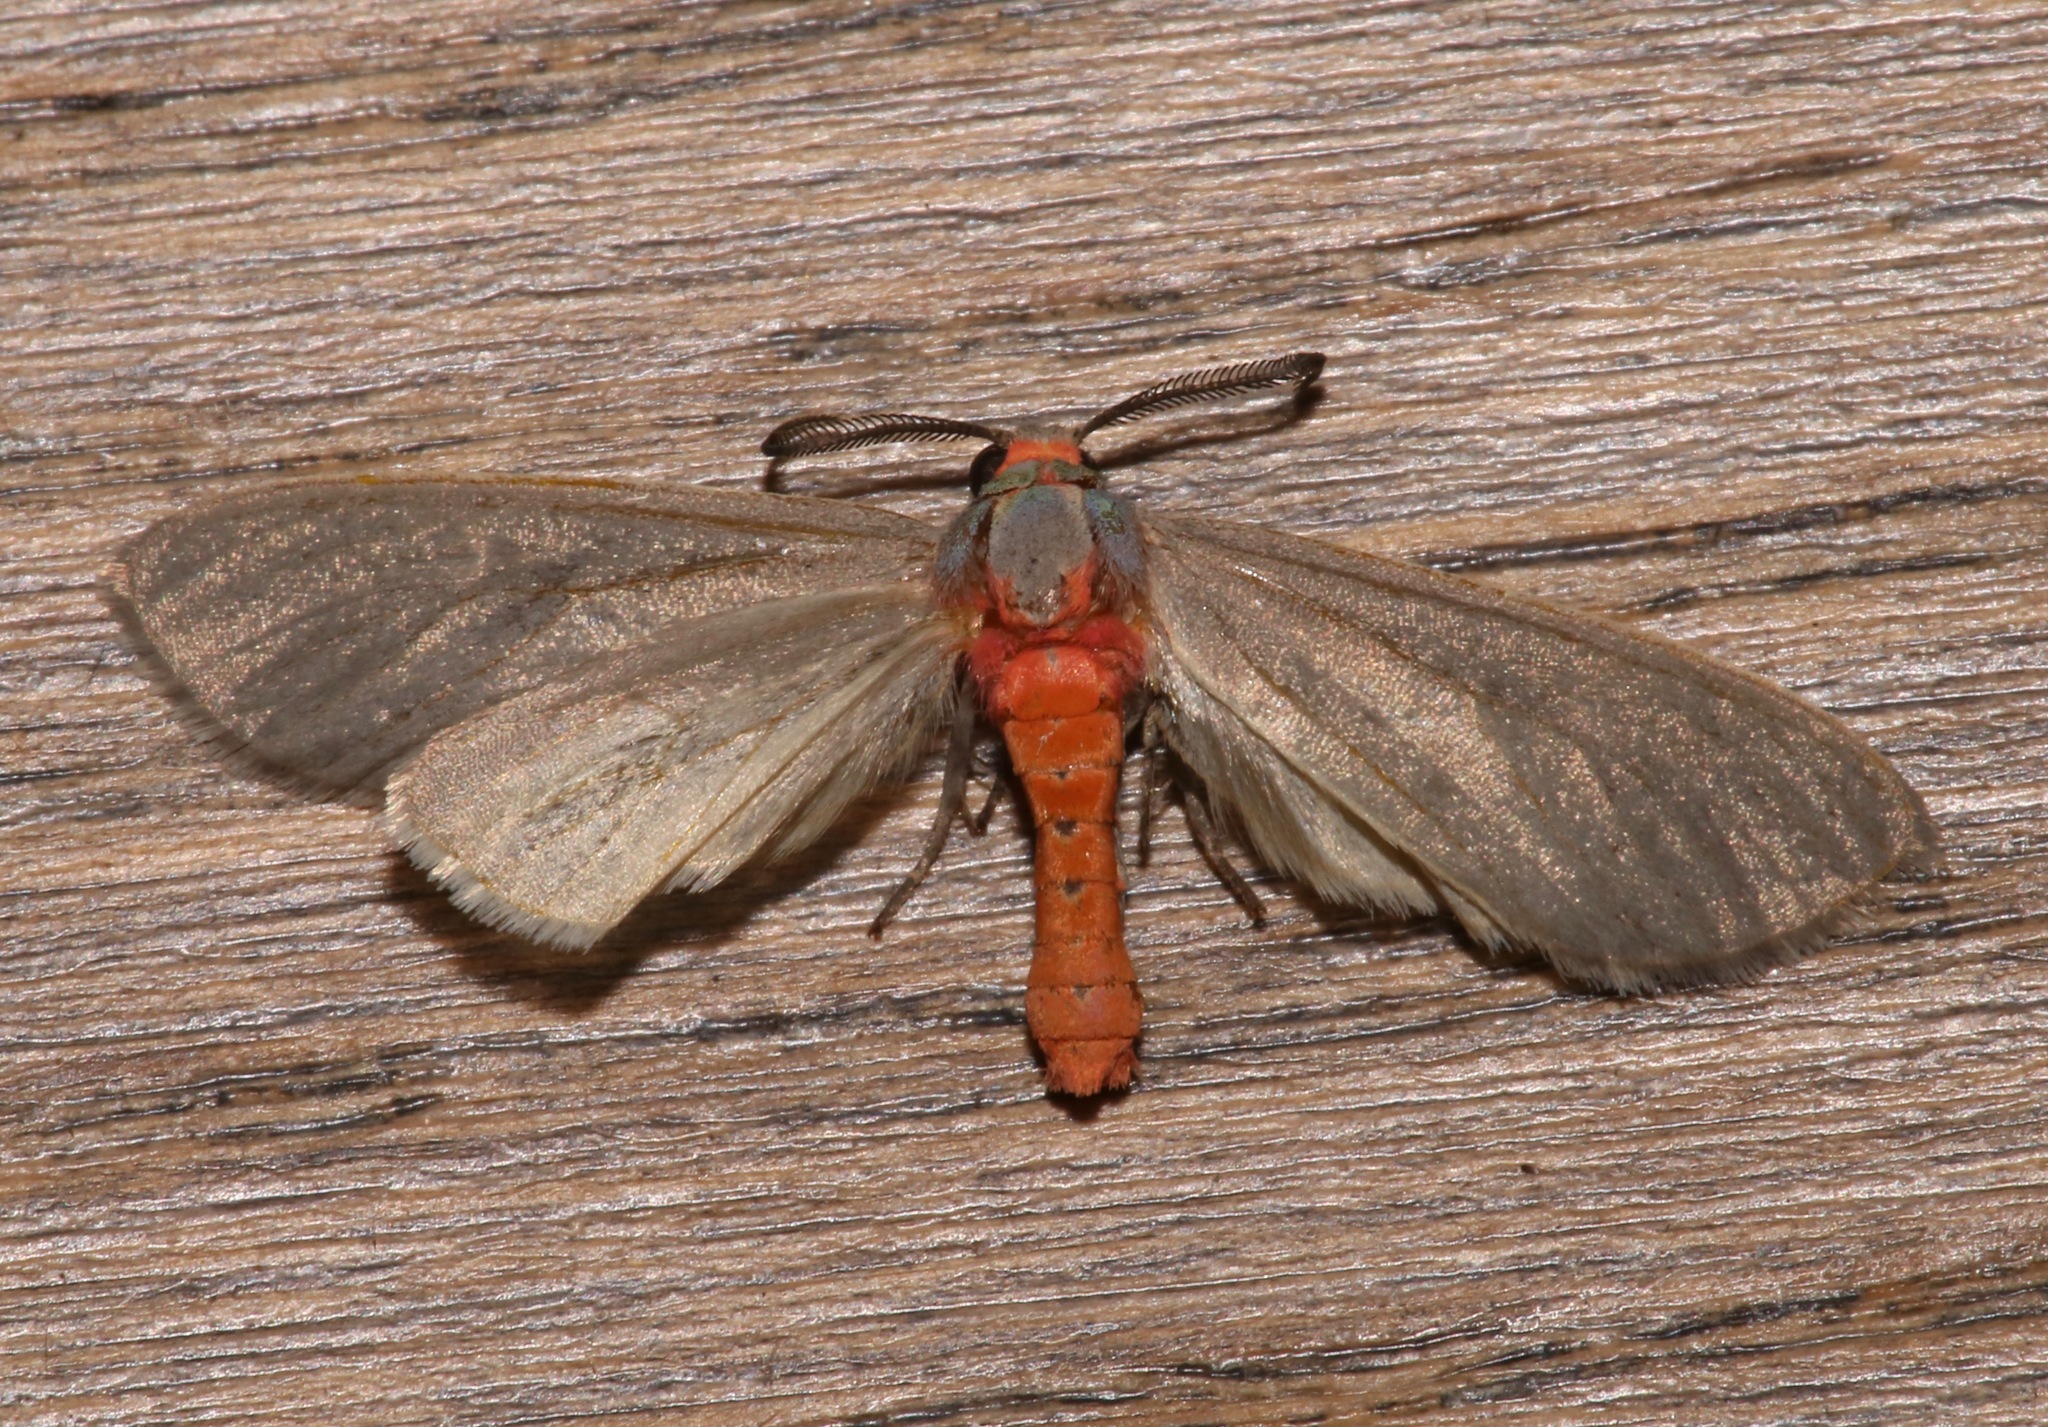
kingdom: Animalia
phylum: Arthropoda
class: Insecta
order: Lepidoptera
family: Erebidae
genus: Pygarctia
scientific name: Pygarctia murina
